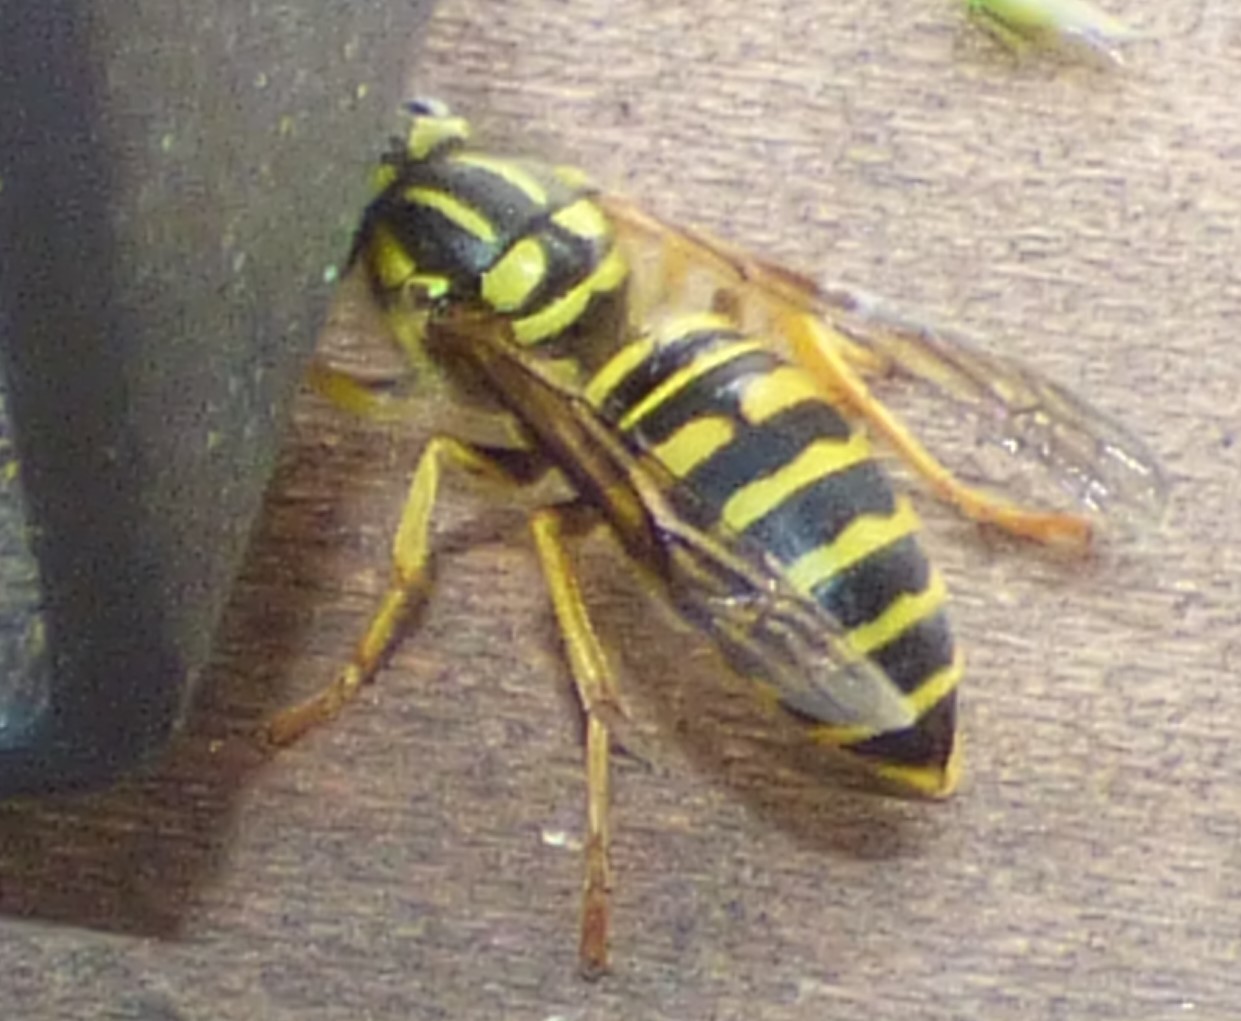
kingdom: Animalia
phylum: Arthropoda
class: Insecta
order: Hymenoptera
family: Vespidae
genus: Vespula
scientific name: Vespula squamosa
